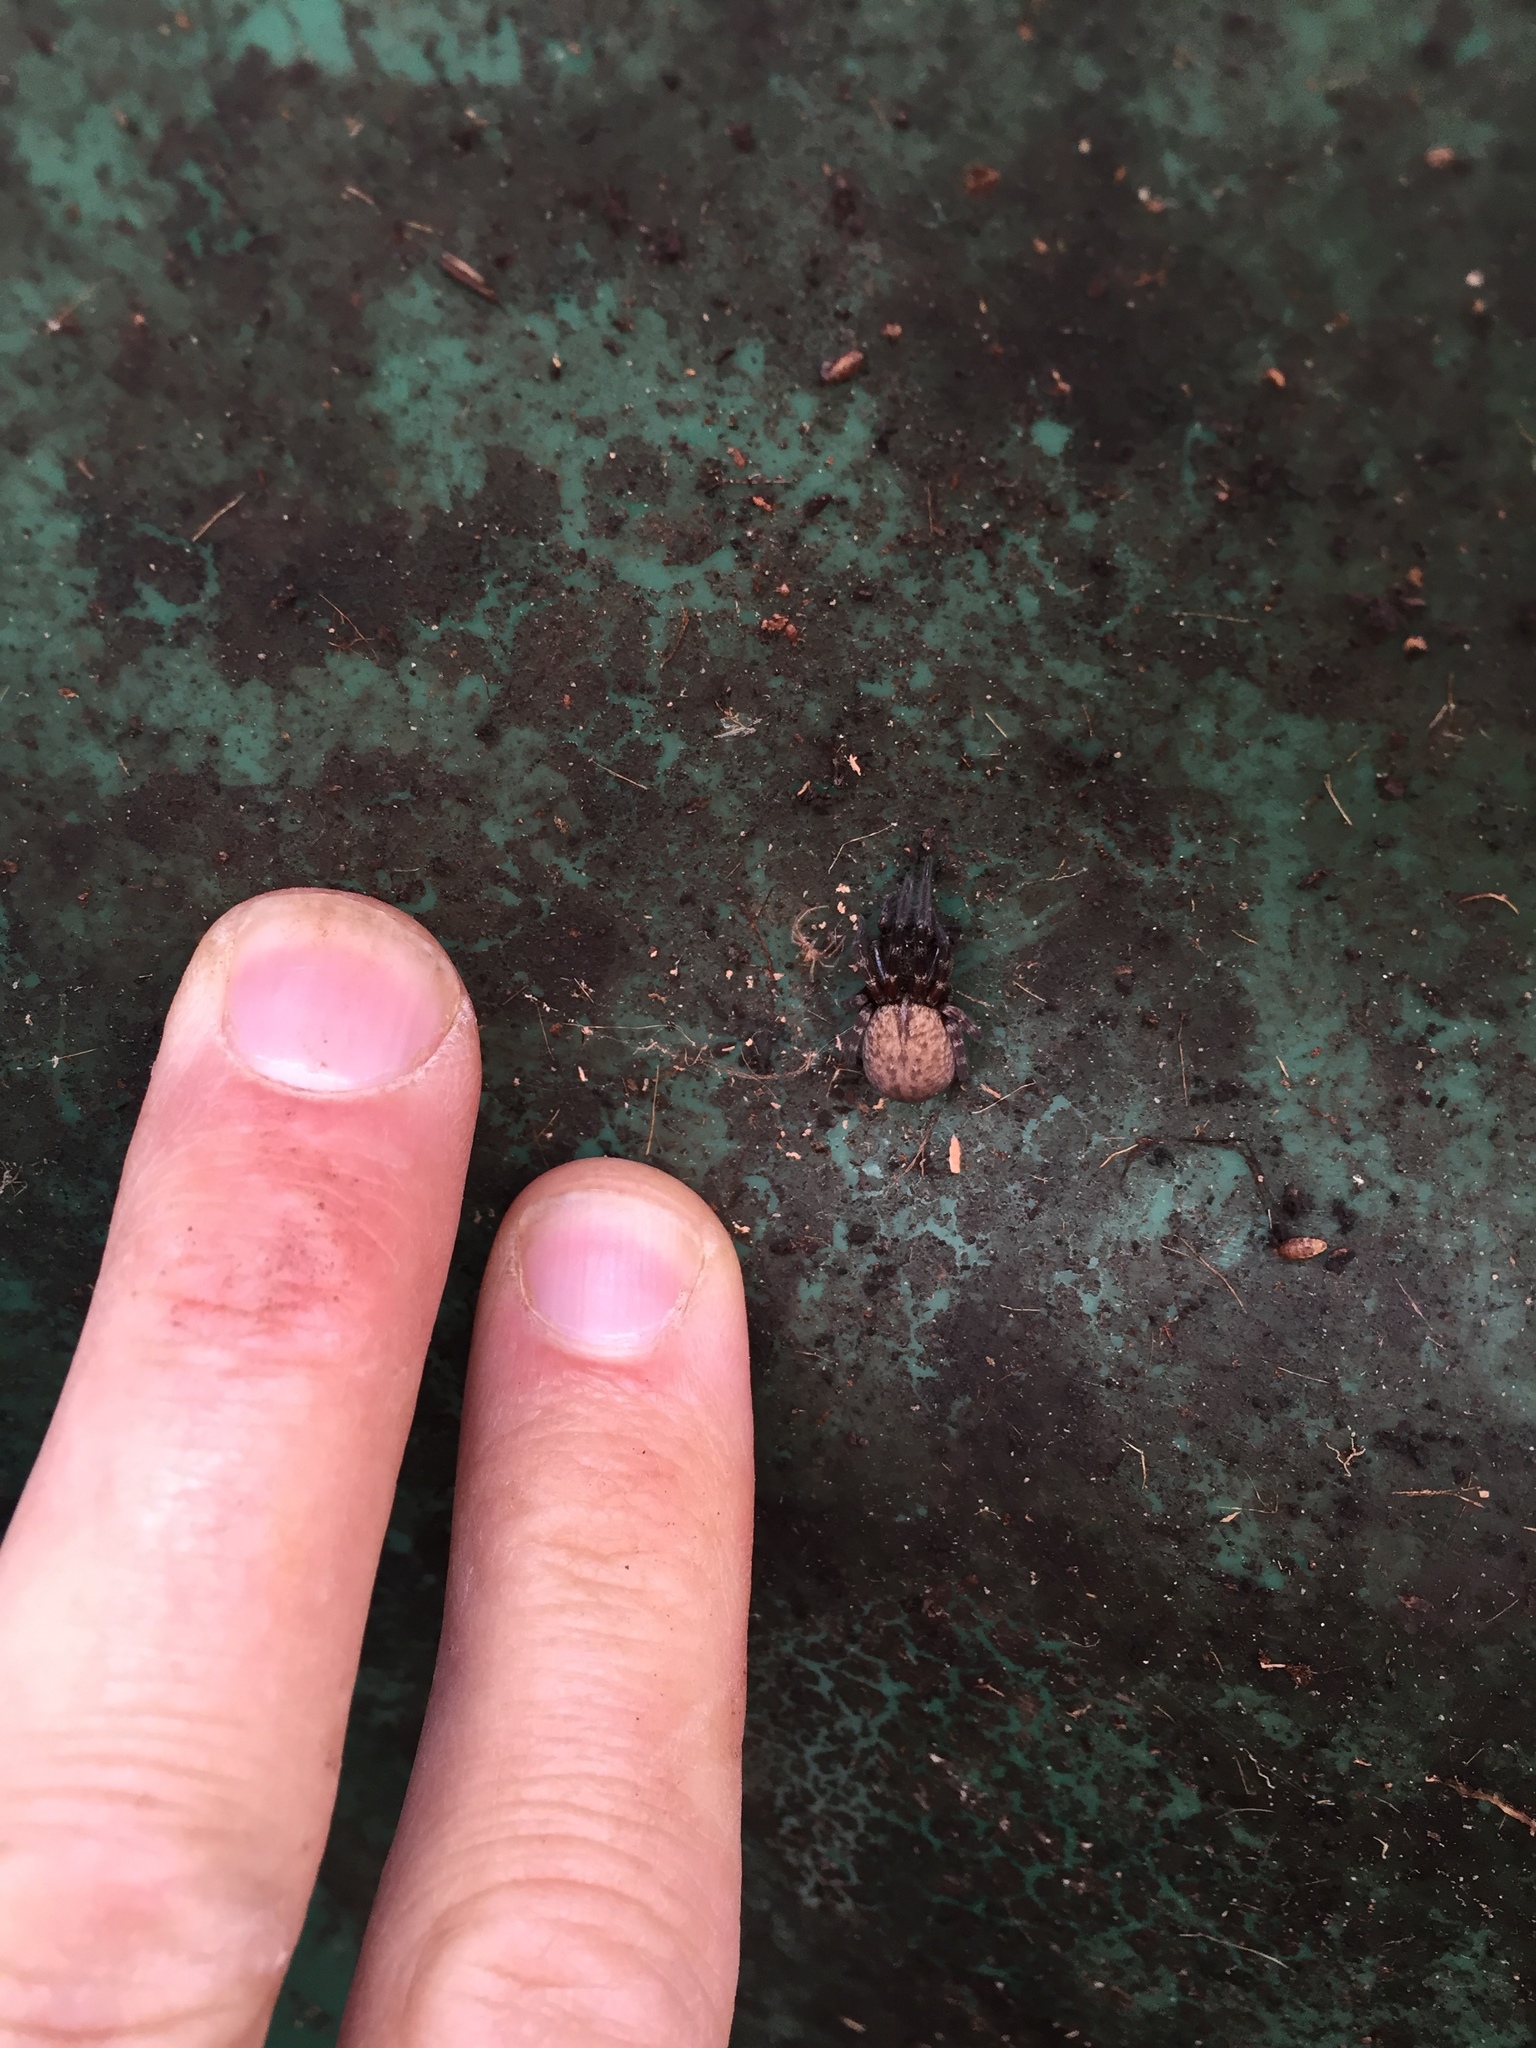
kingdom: Animalia
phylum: Arthropoda
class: Arachnida
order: Araneae
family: Desidae
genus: Badumna
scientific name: Badumna longinqua
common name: Gray house spider
